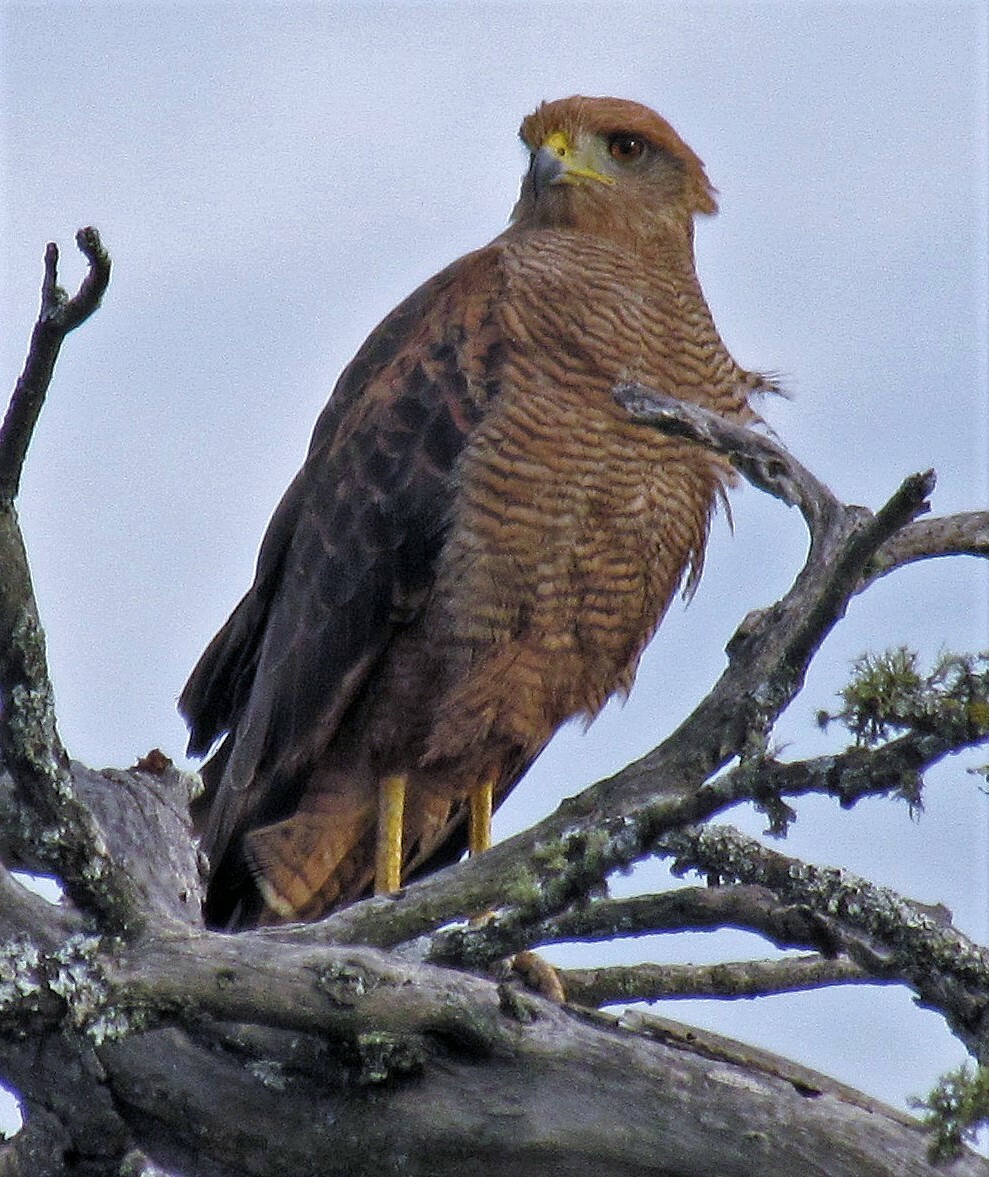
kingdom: Animalia
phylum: Chordata
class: Aves
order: Accipitriformes
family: Accipitridae
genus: Buteogallus
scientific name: Buteogallus meridionalis
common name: Savanna hawk
